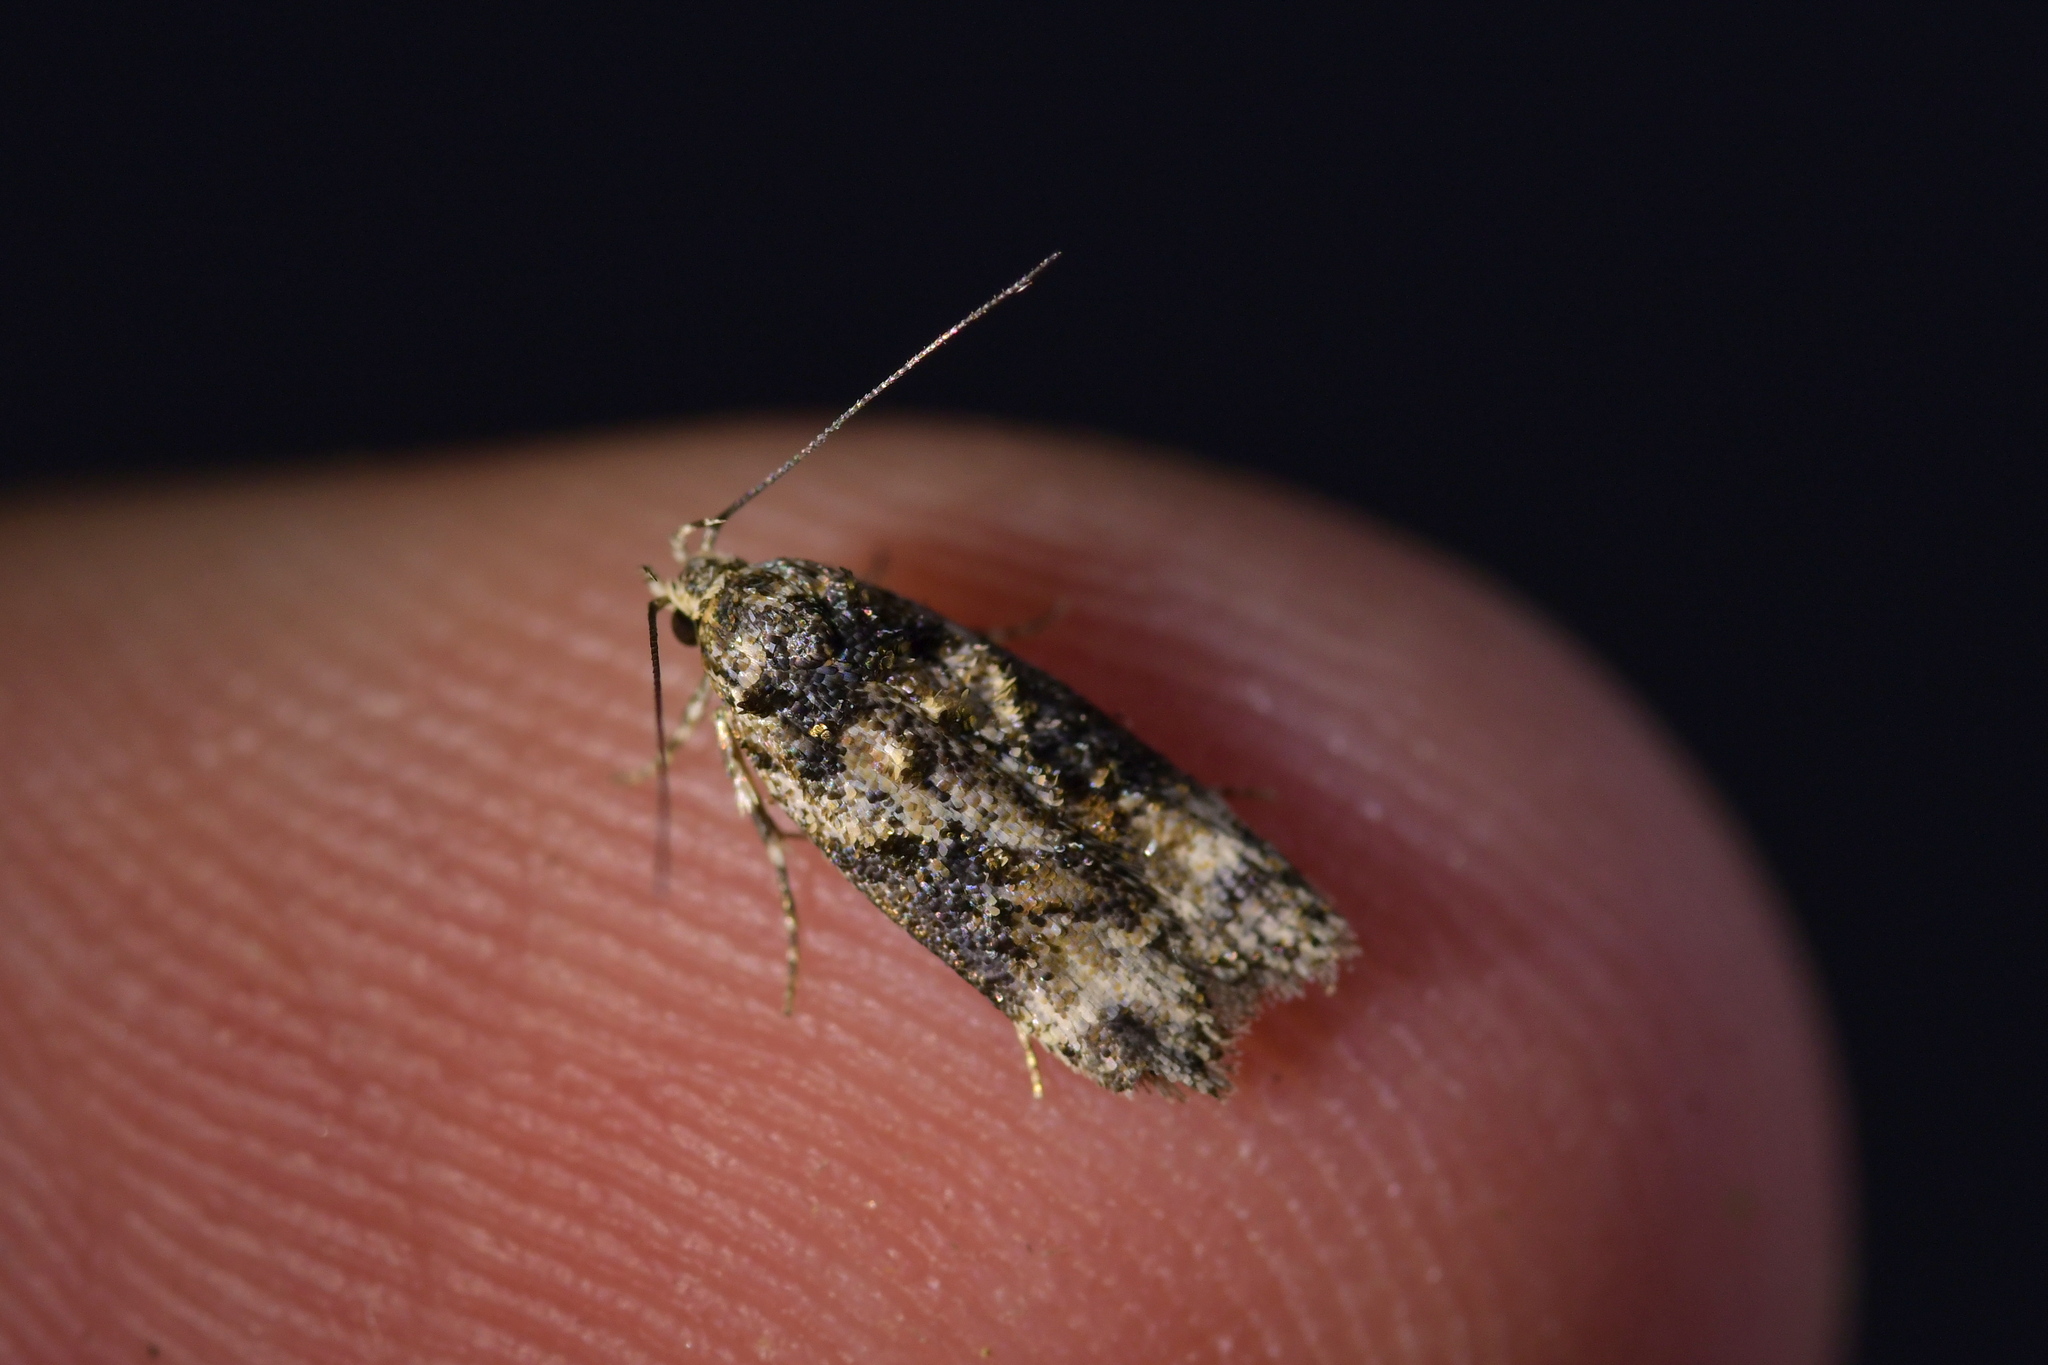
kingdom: Animalia
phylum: Arthropoda
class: Insecta
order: Lepidoptera
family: Oecophoridae
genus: Izatha
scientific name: Izatha phaeoptila
